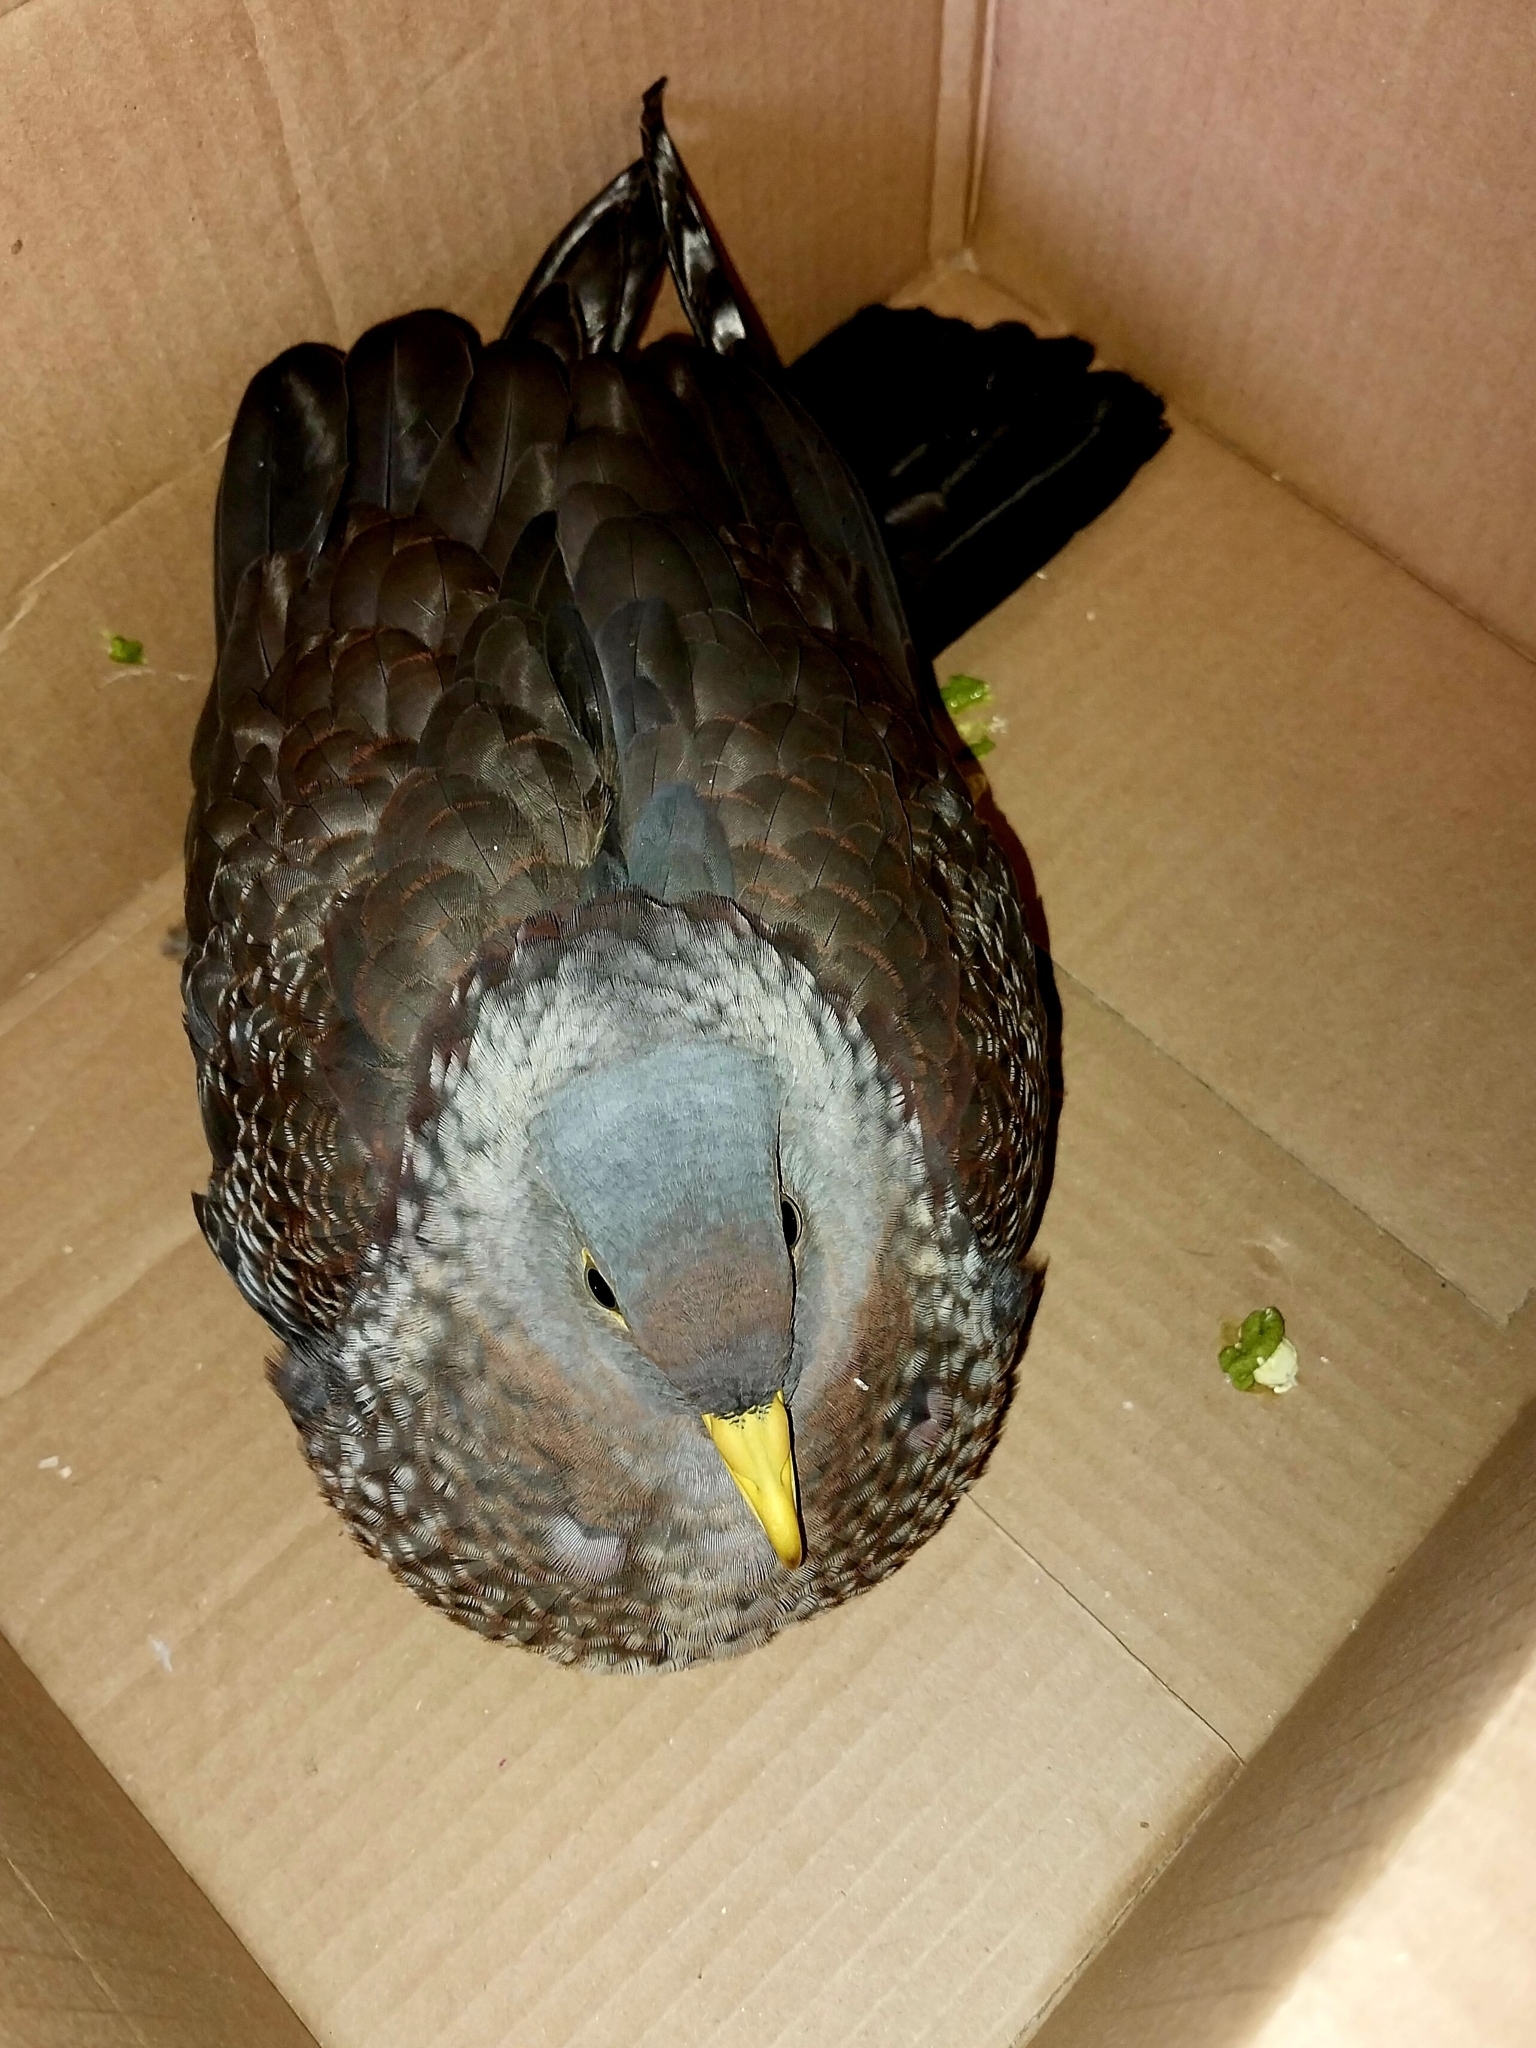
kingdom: Animalia
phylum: Chordata
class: Aves
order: Columbiformes
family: Columbidae
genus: Columba
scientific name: Columba arquatrix
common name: African olive pigeon
